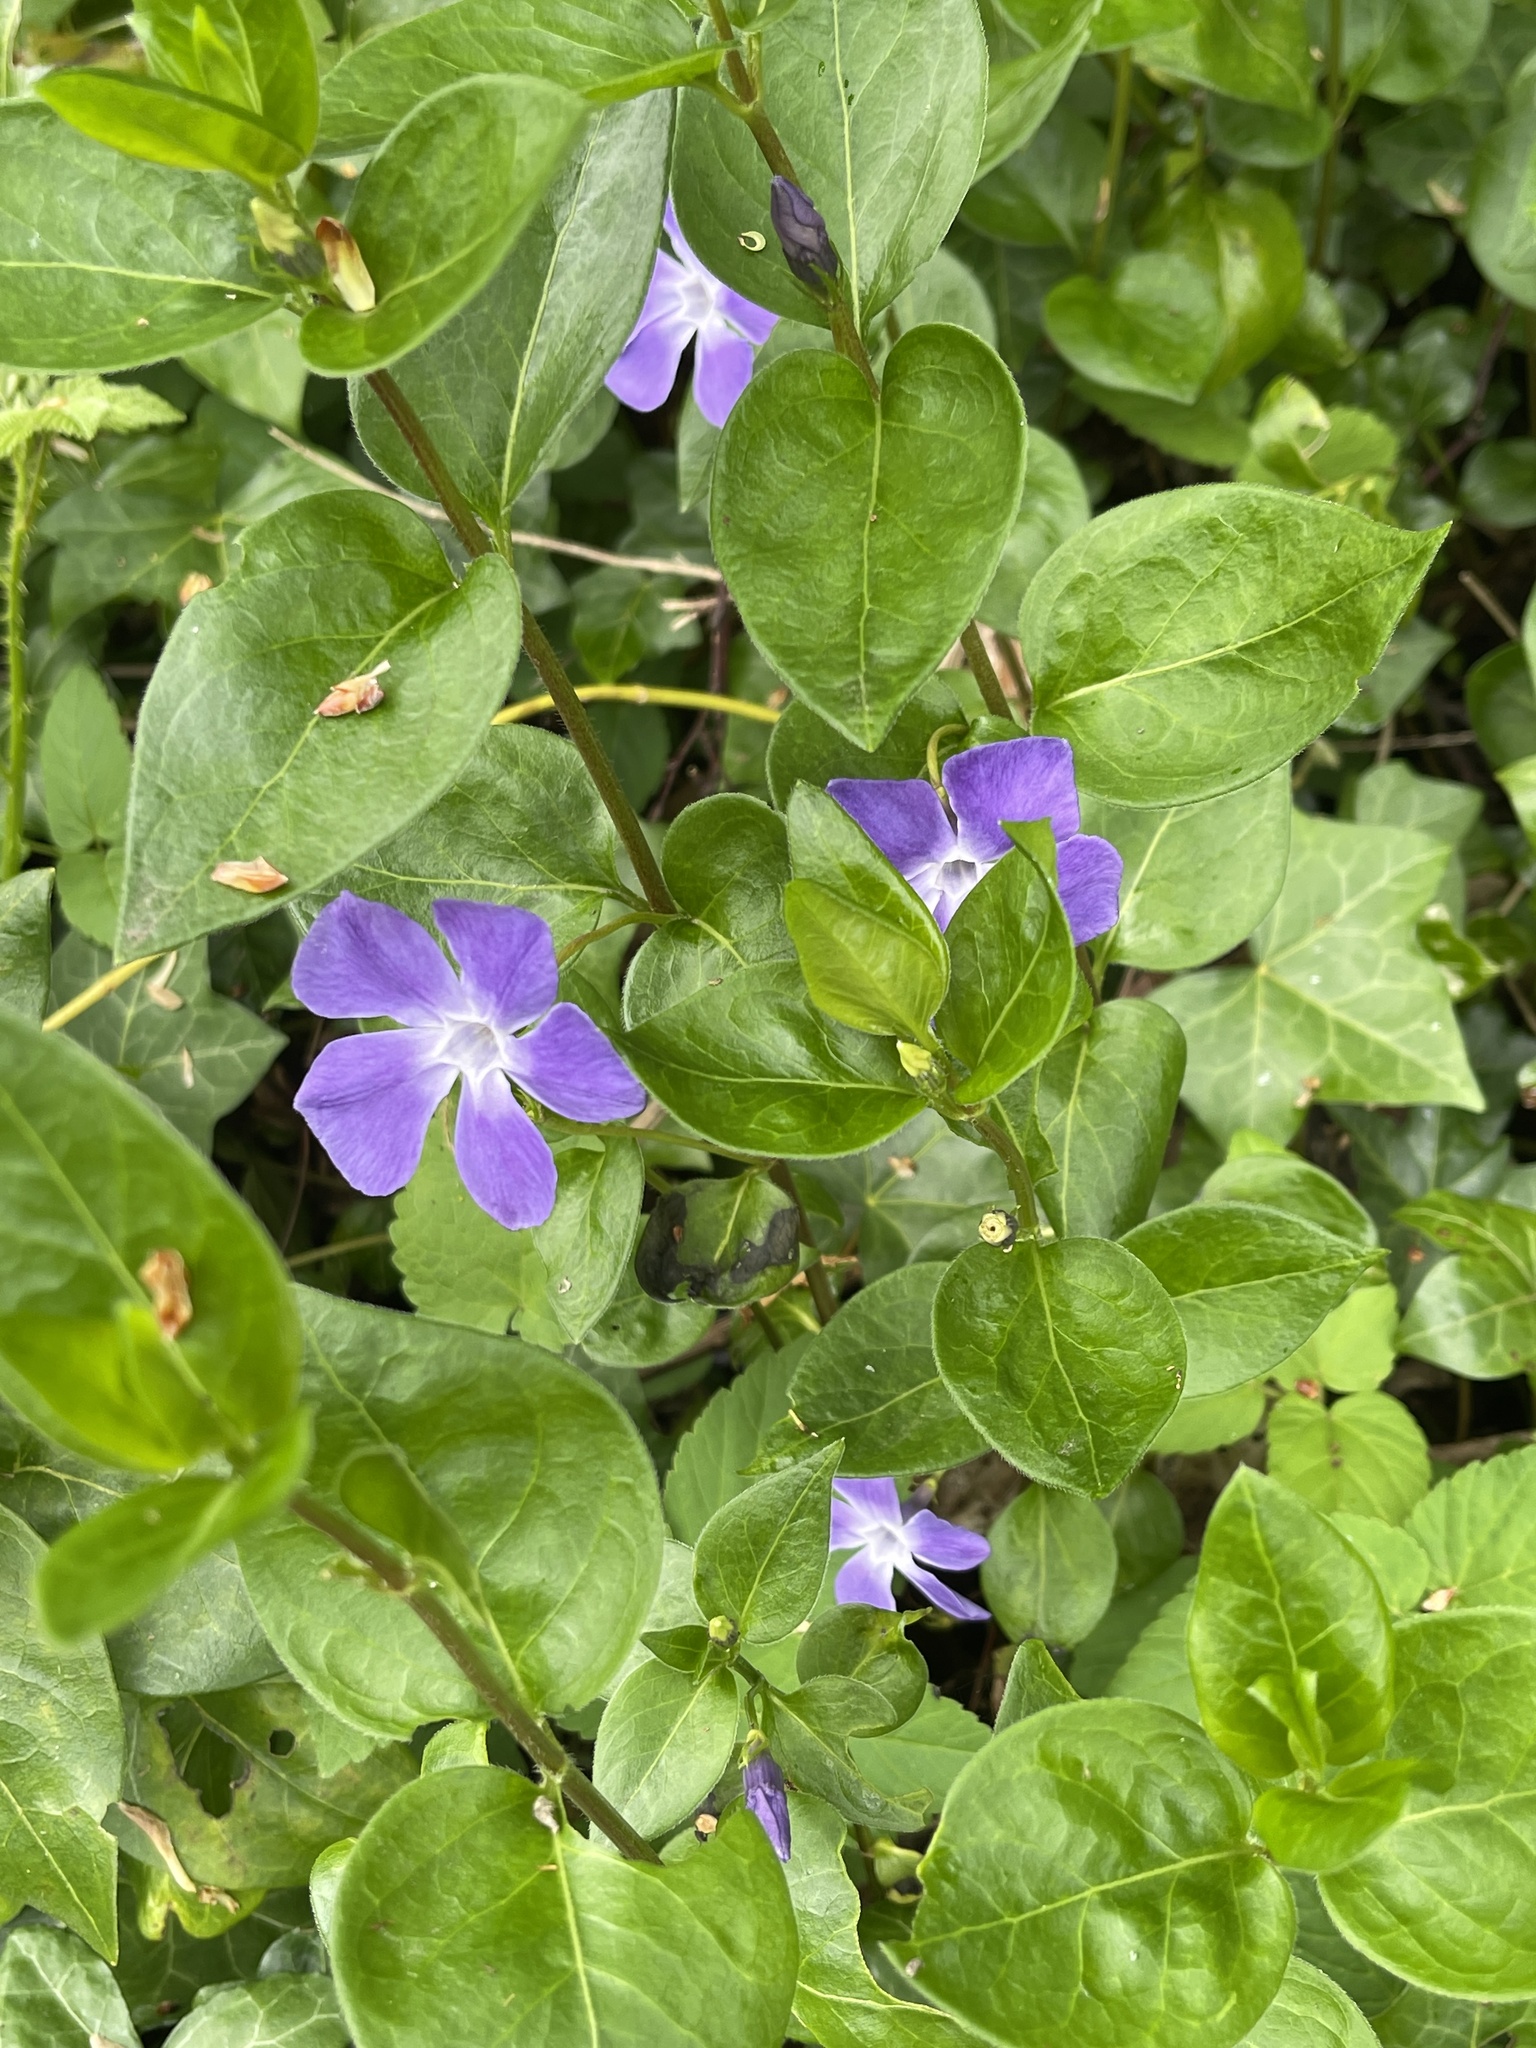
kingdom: Plantae
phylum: Tracheophyta
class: Magnoliopsida
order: Gentianales
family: Apocynaceae
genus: Vinca
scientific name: Vinca major
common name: Greater periwinkle
